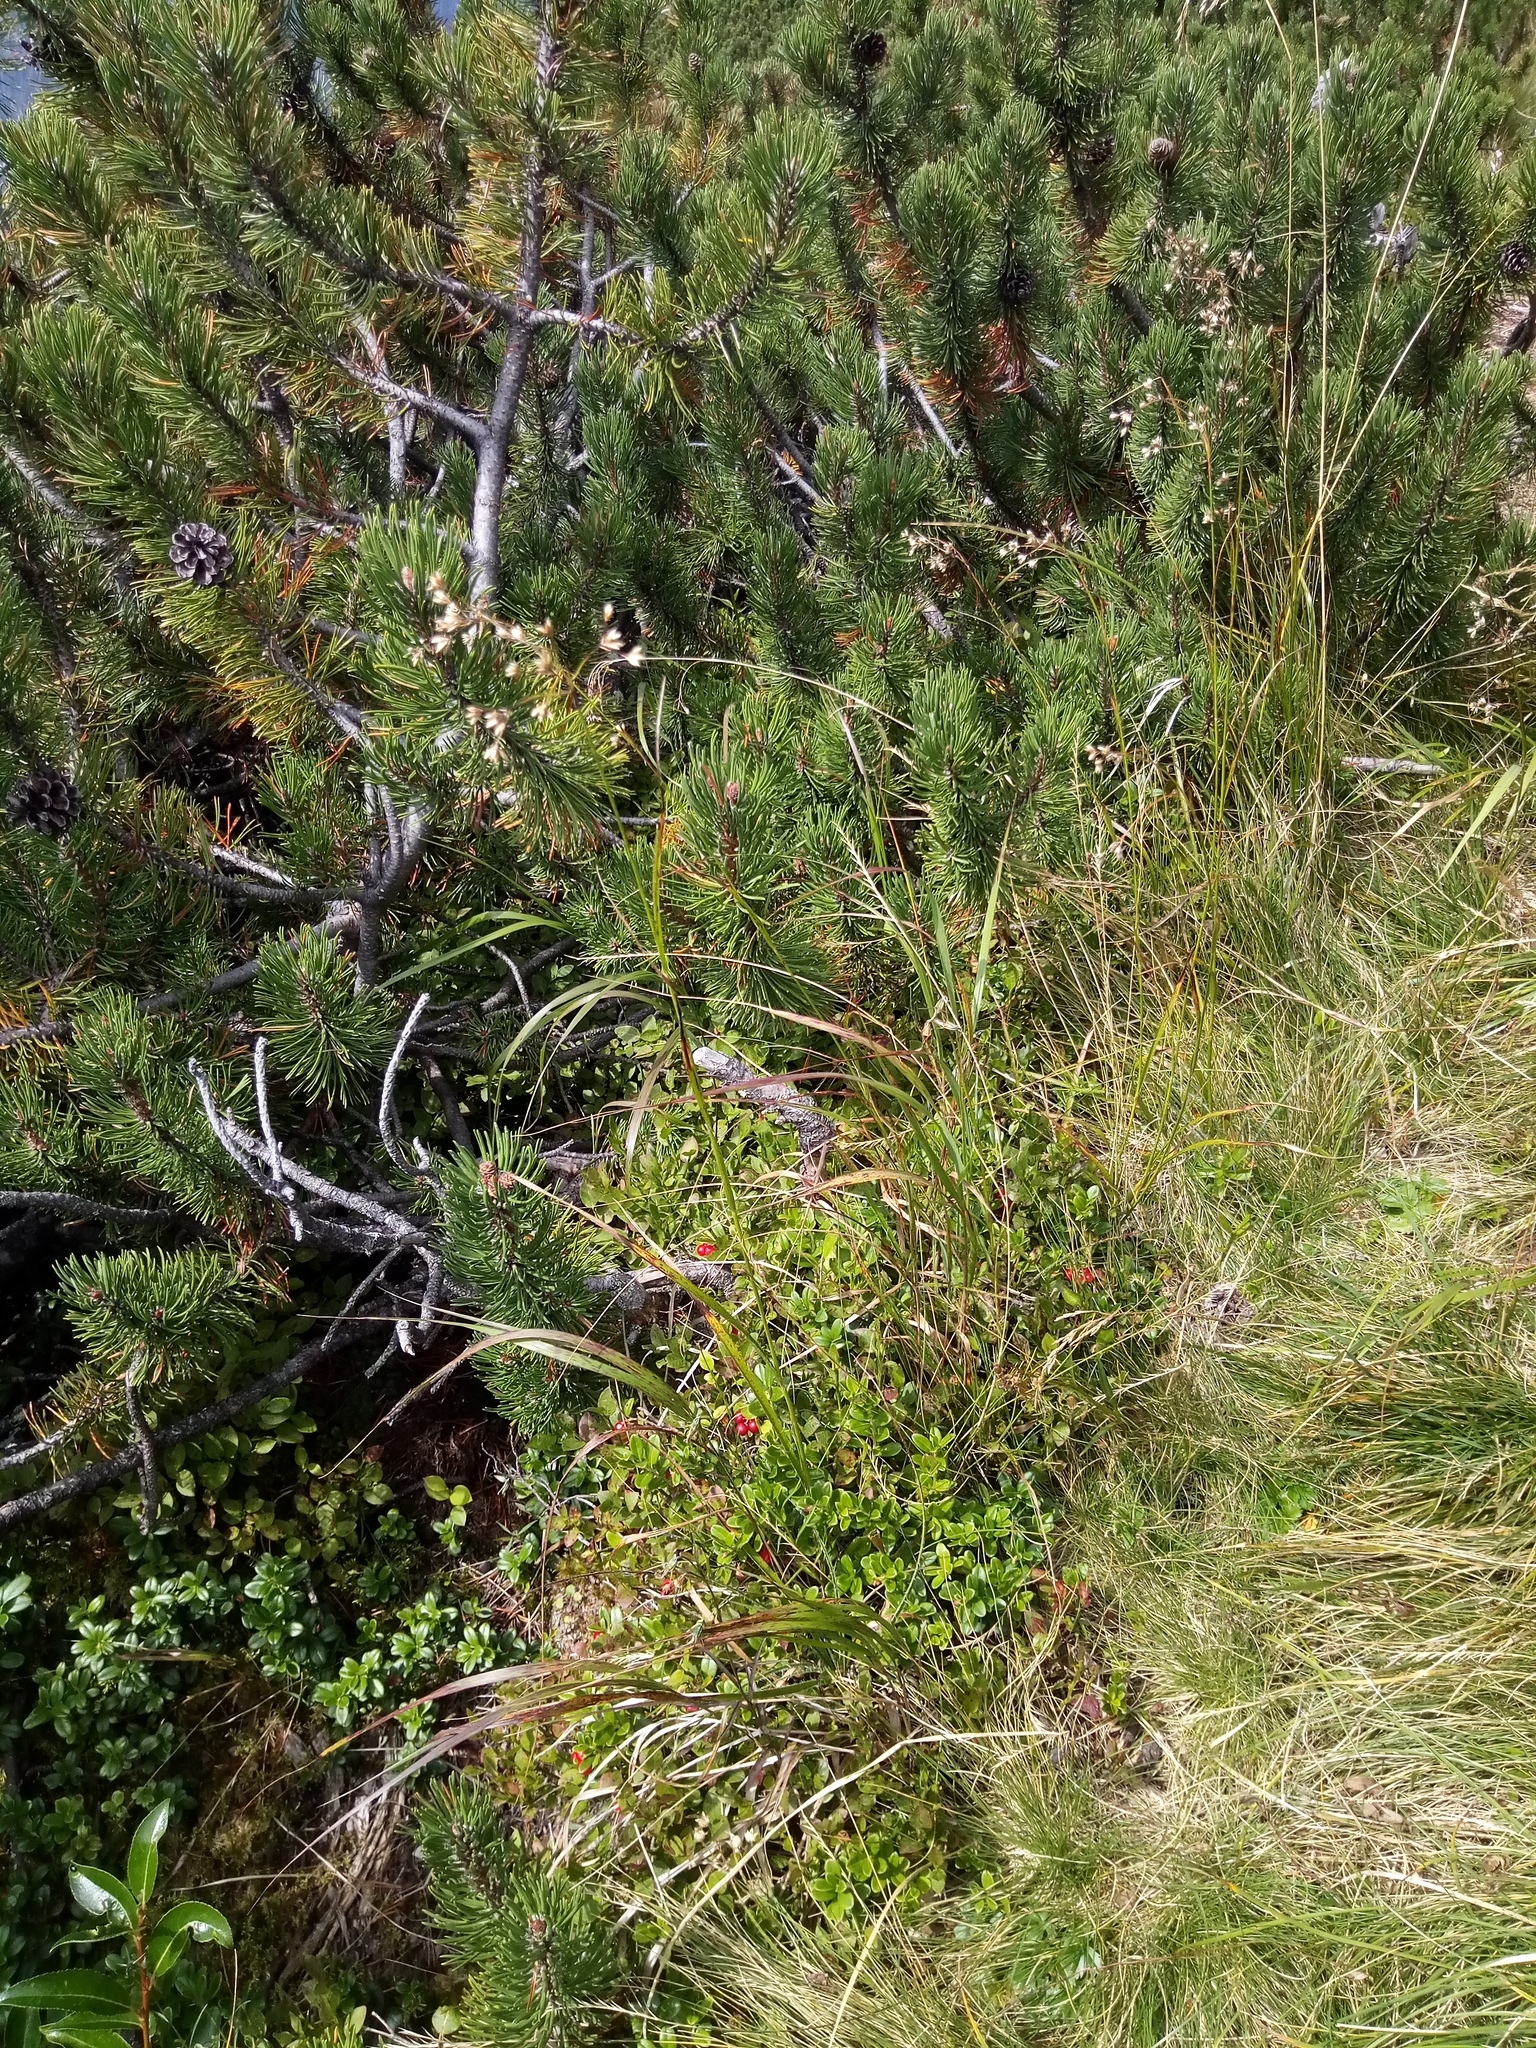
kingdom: Plantae
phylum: Tracheophyta
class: Liliopsida
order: Poales
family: Juncaceae
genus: Luzula
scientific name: Luzula luzuloides
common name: White wood-rush
